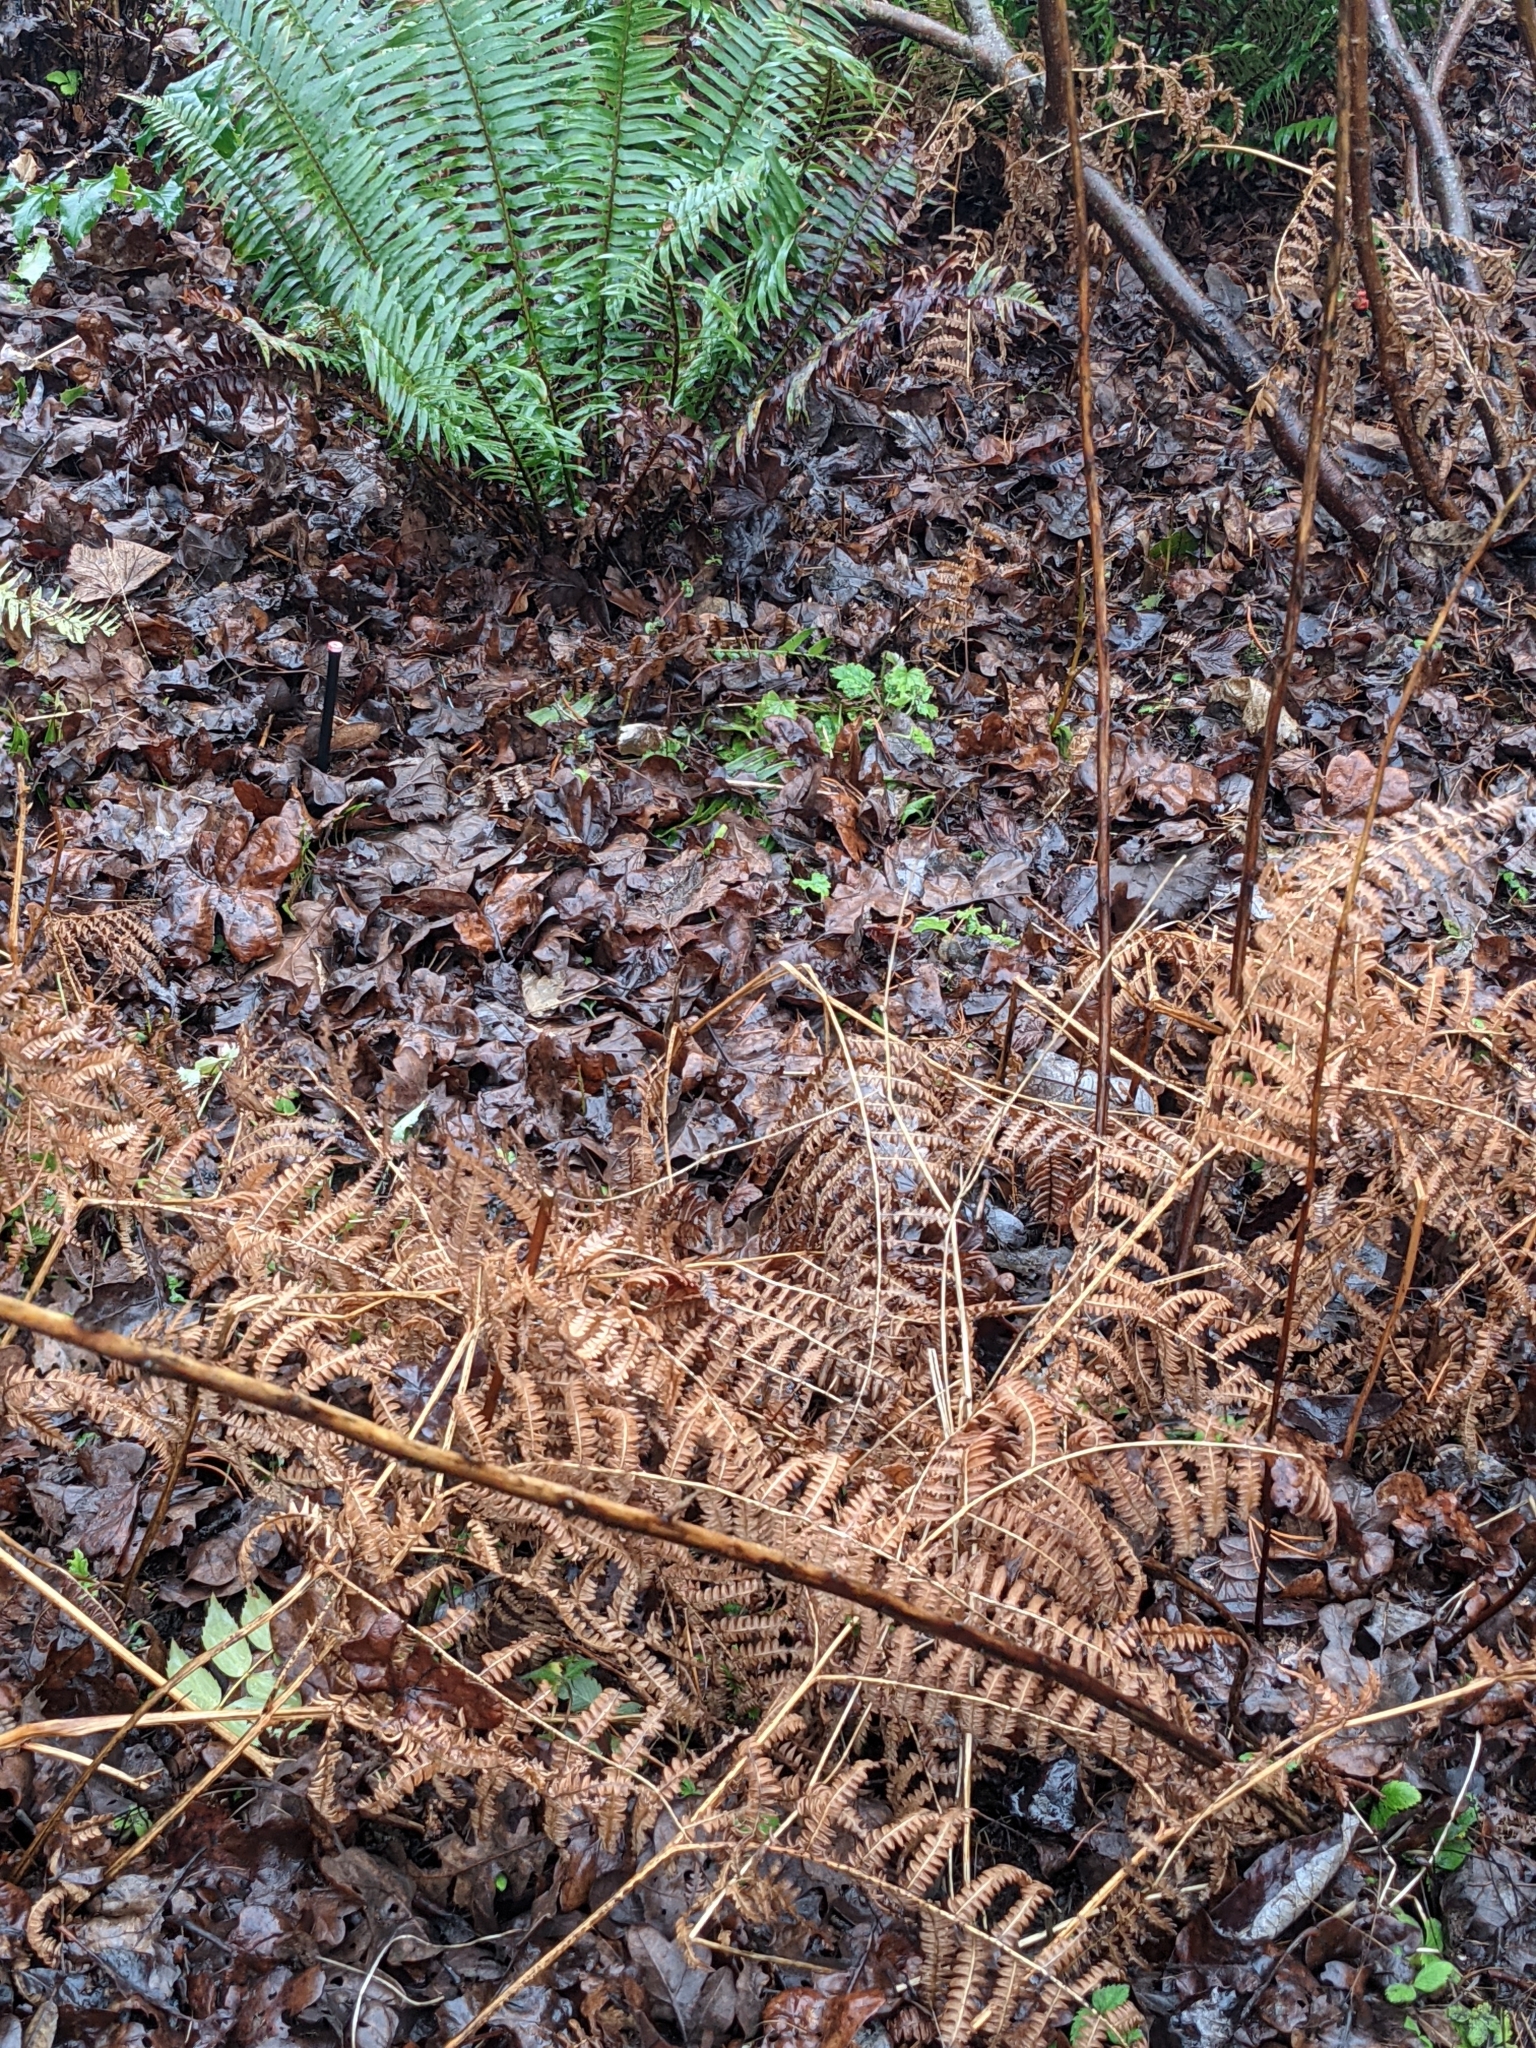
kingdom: Plantae
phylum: Tracheophyta
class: Polypodiopsida
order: Polypodiales
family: Dennstaedtiaceae
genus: Pteridium
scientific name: Pteridium aquilinum
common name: Bracken
